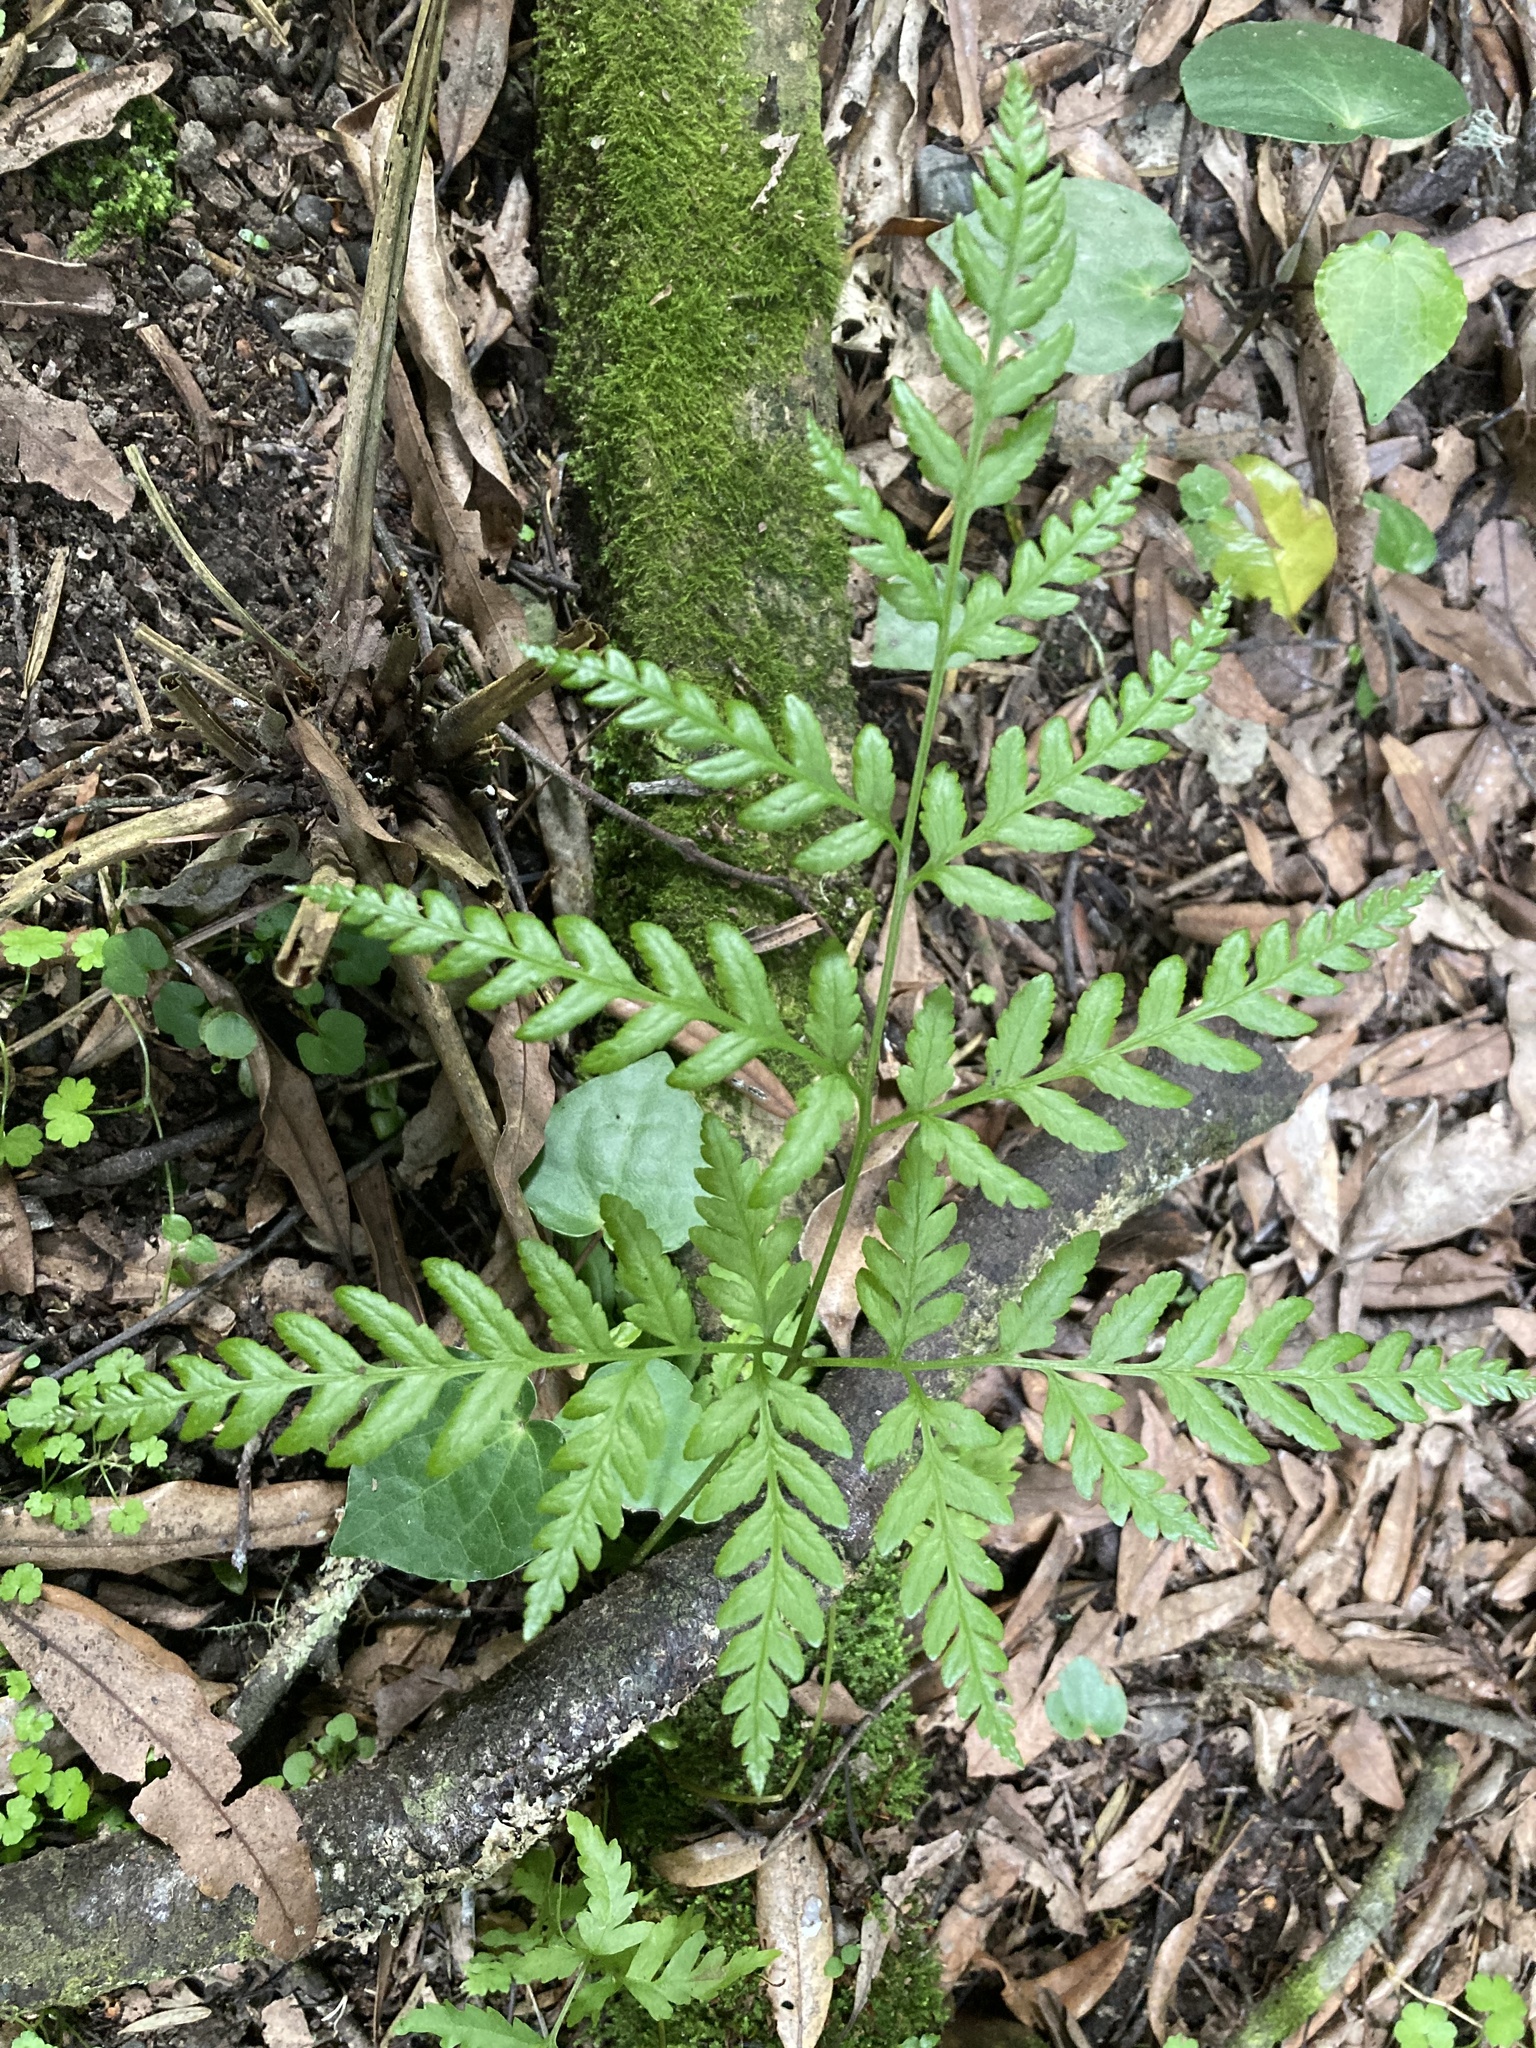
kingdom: Plantae
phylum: Tracheophyta
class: Polypodiopsida
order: Polypodiales
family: Pteridaceae
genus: Pteris
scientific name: Pteris tremula
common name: Australian brake
